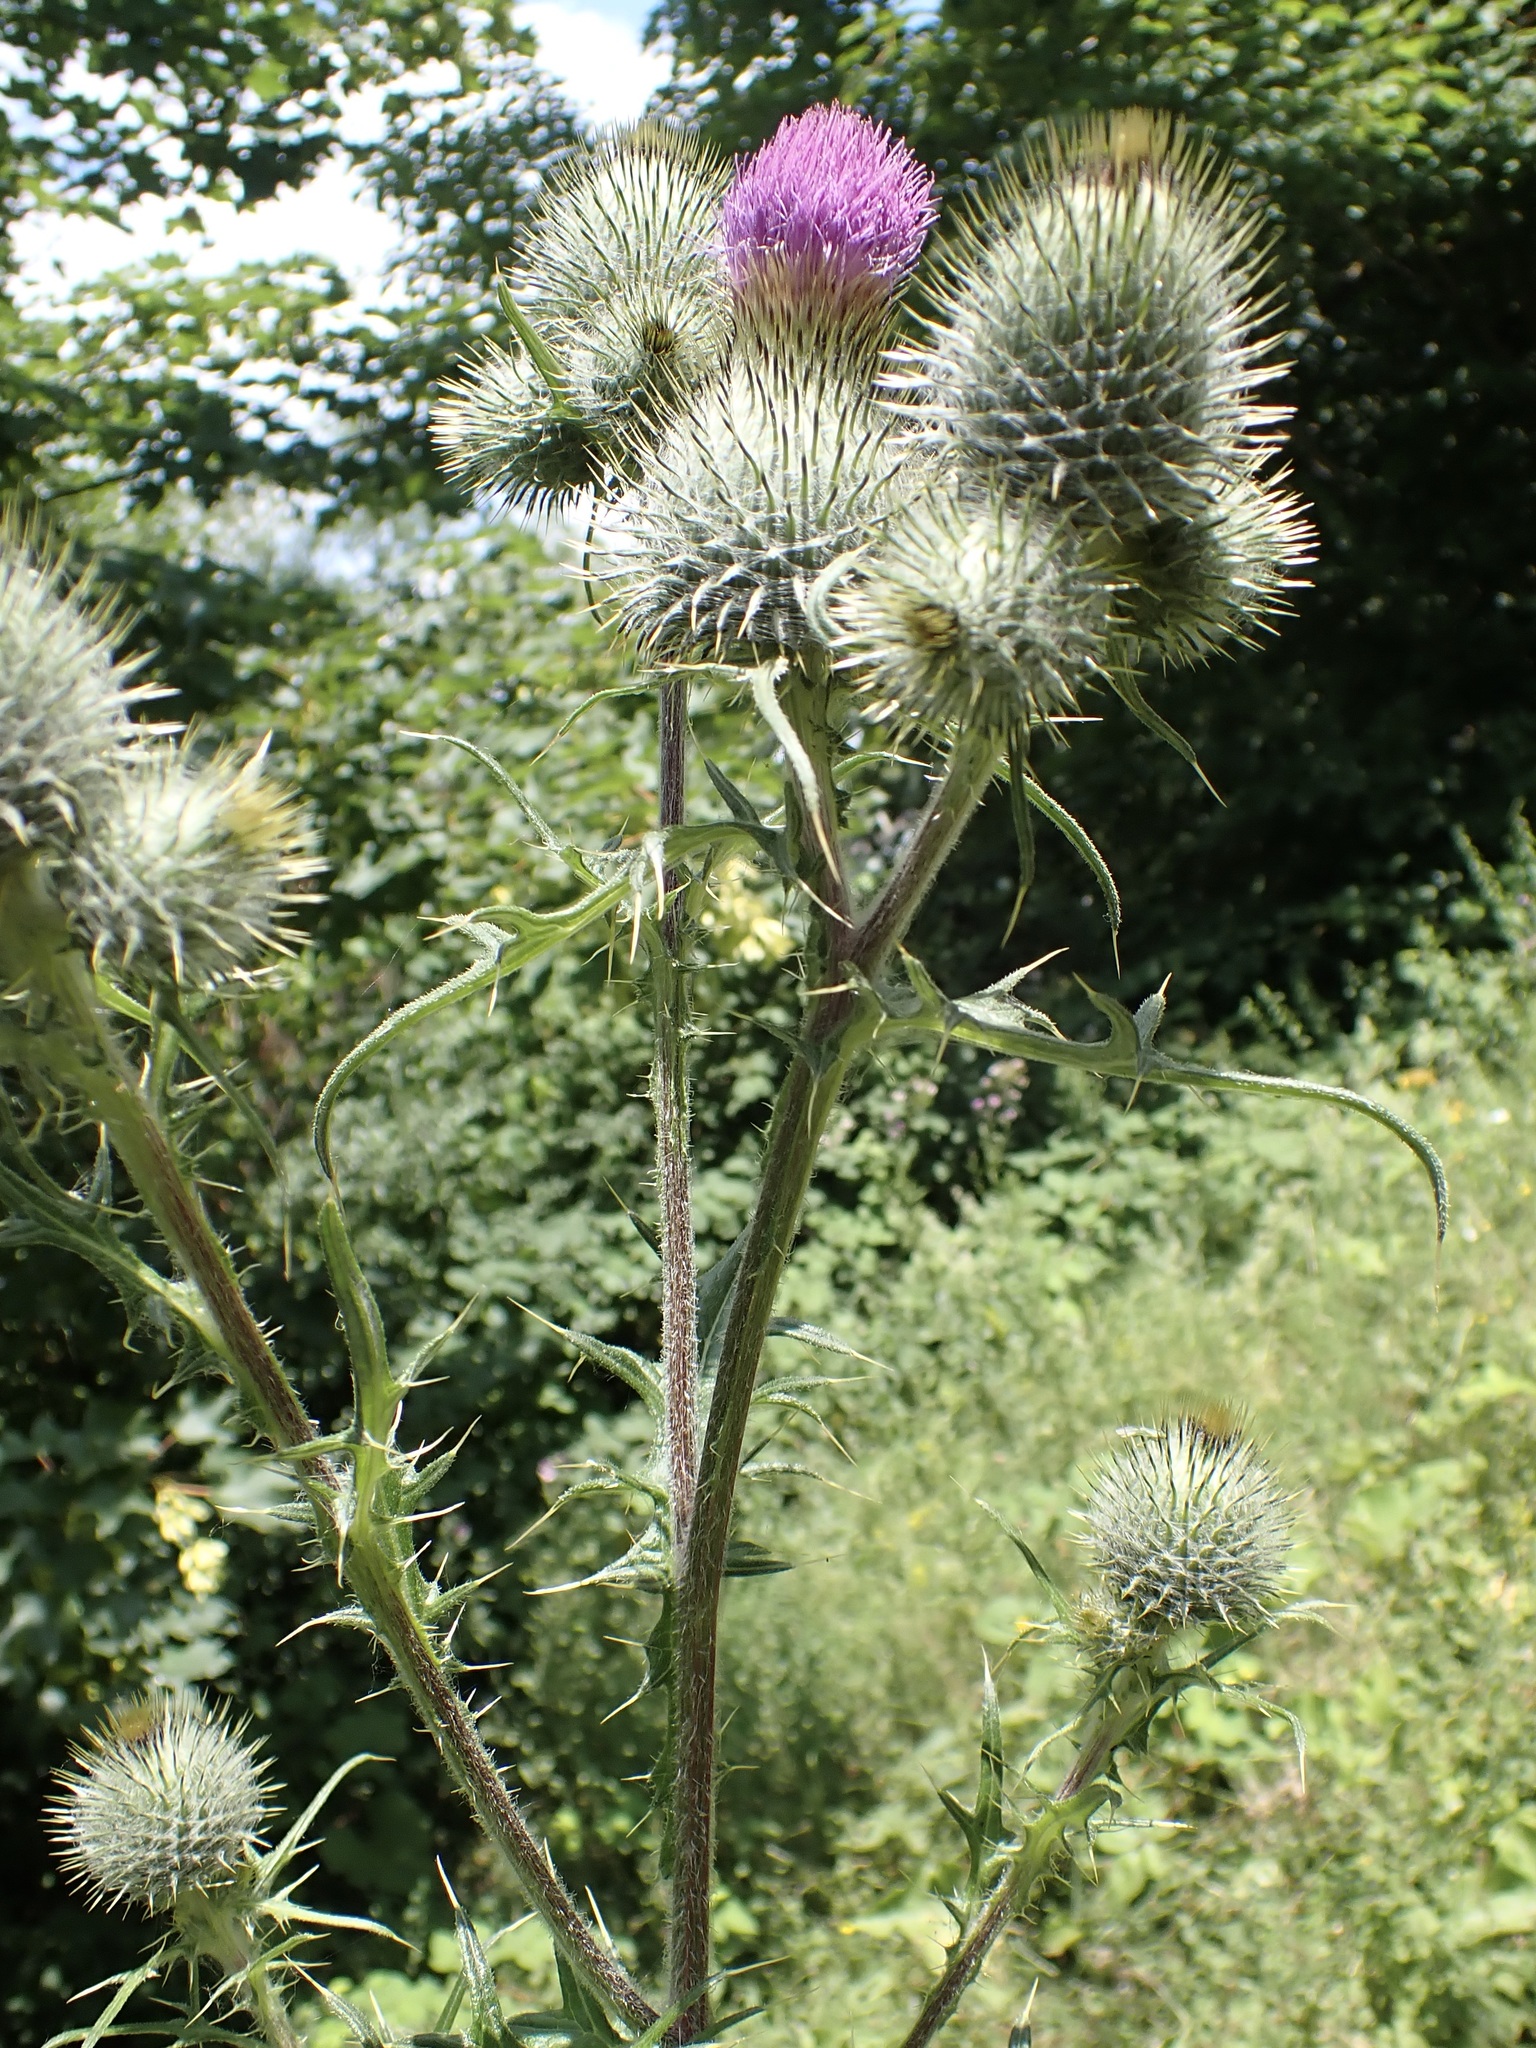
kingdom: Plantae
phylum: Tracheophyta
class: Magnoliopsida
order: Asterales
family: Asteraceae
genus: Cirsium
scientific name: Cirsium vulgare
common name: Bull thistle
